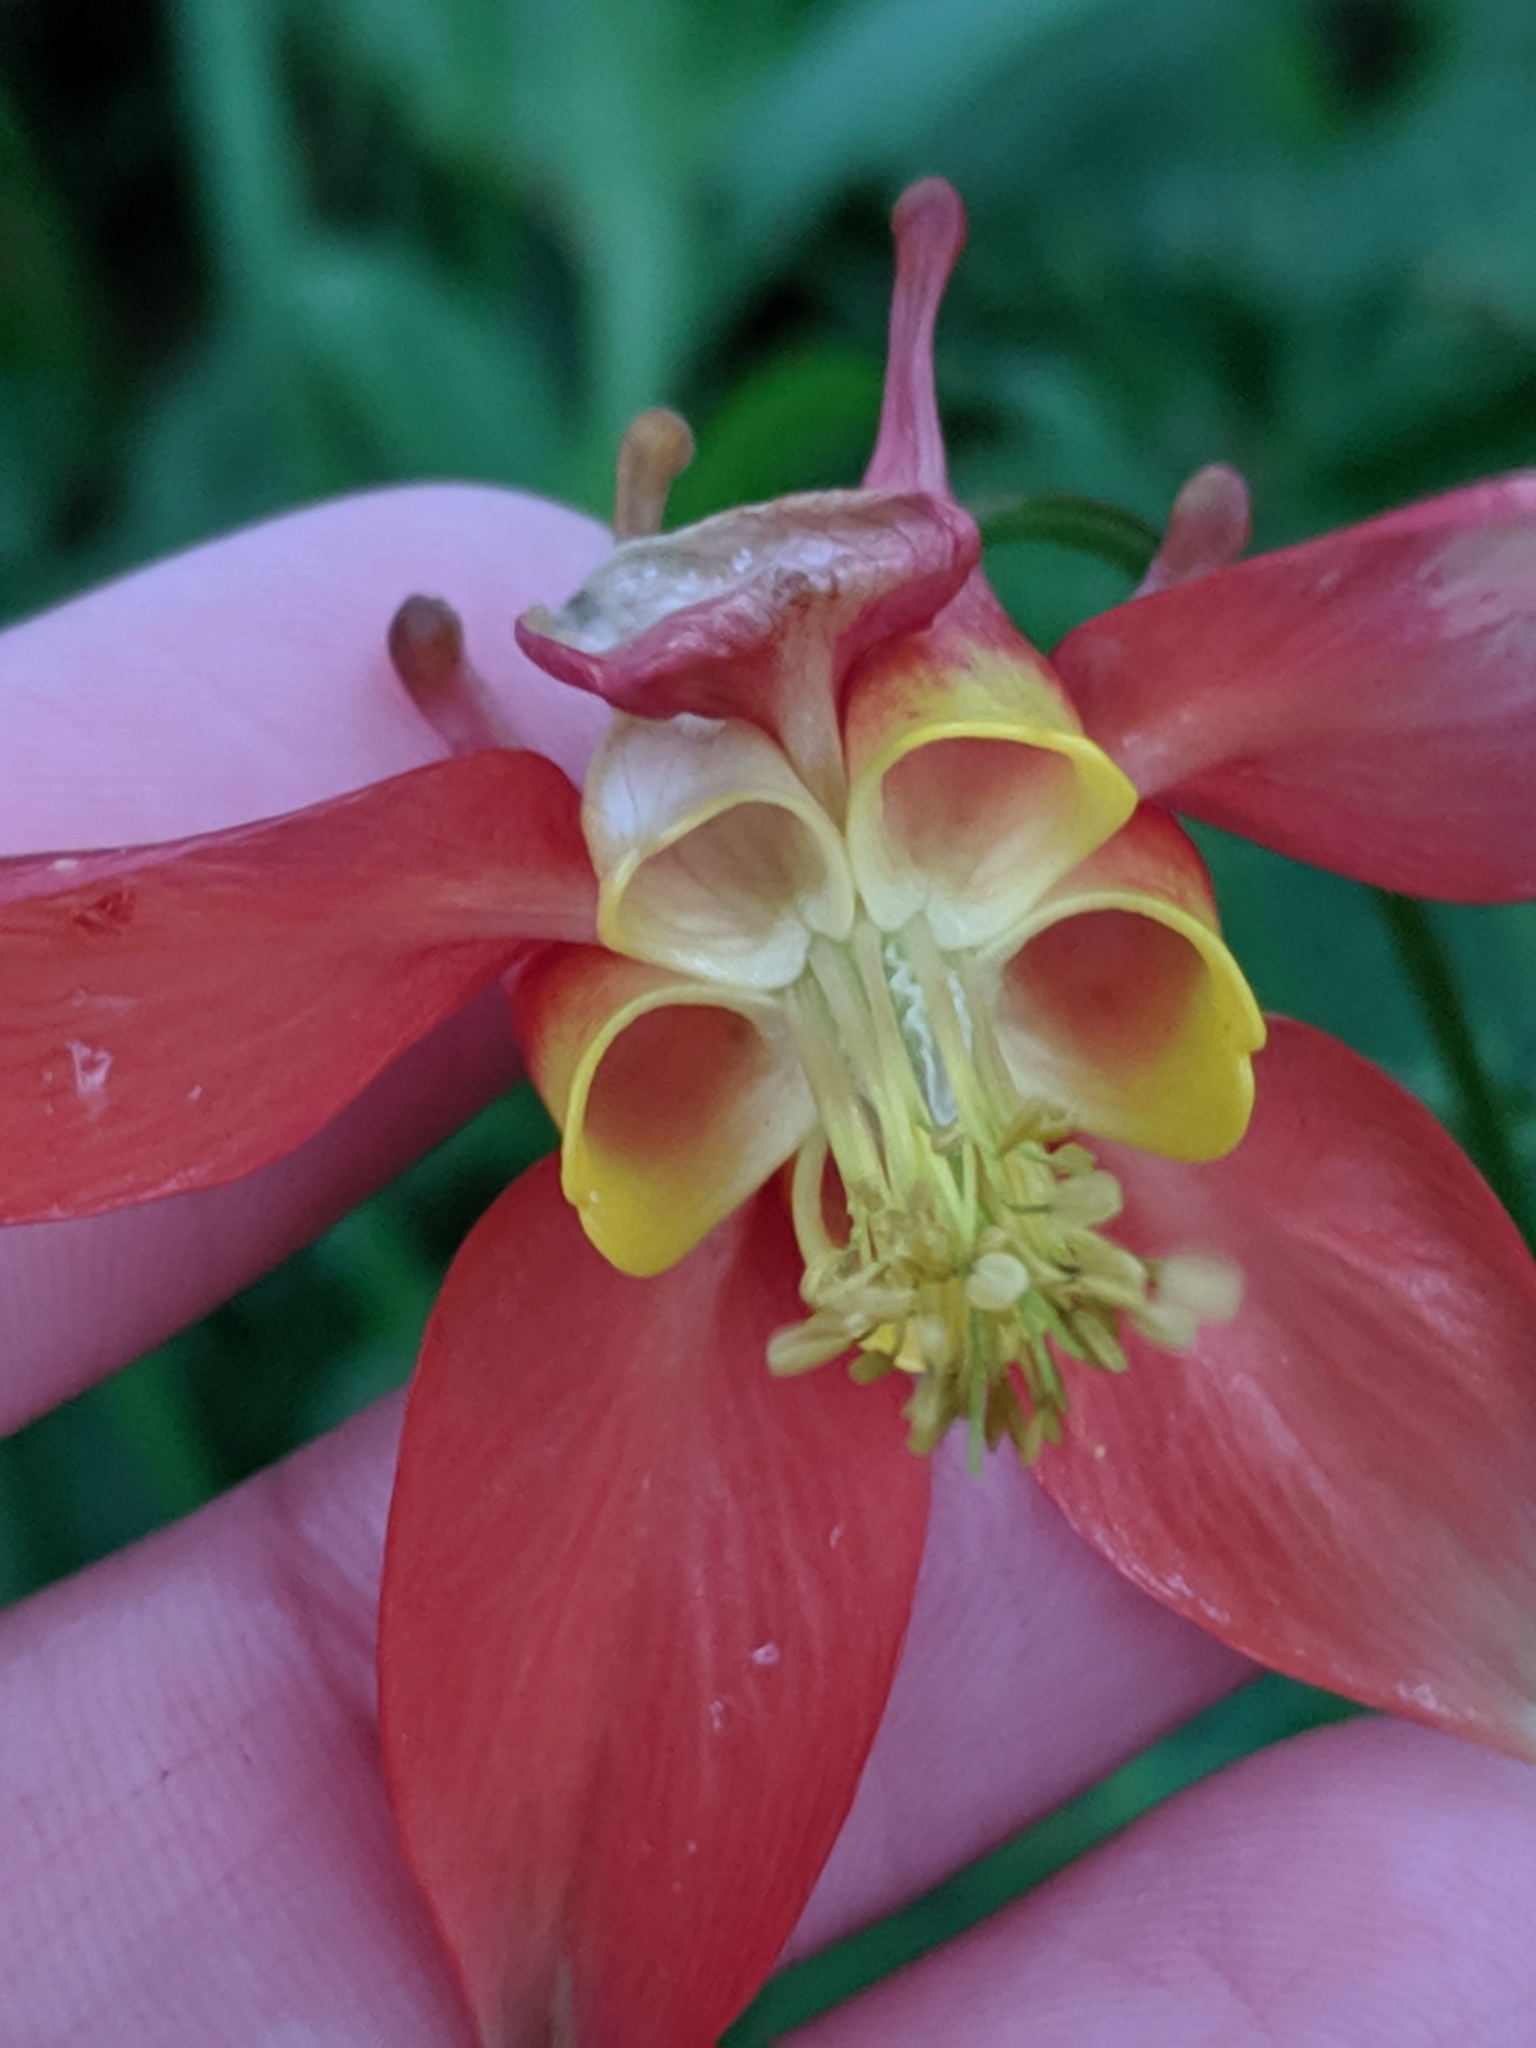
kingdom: Plantae
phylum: Tracheophyta
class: Magnoliopsida
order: Ranunculales
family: Ranunculaceae
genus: Aquilegia
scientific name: Aquilegia formosa
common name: Sitka columbine
